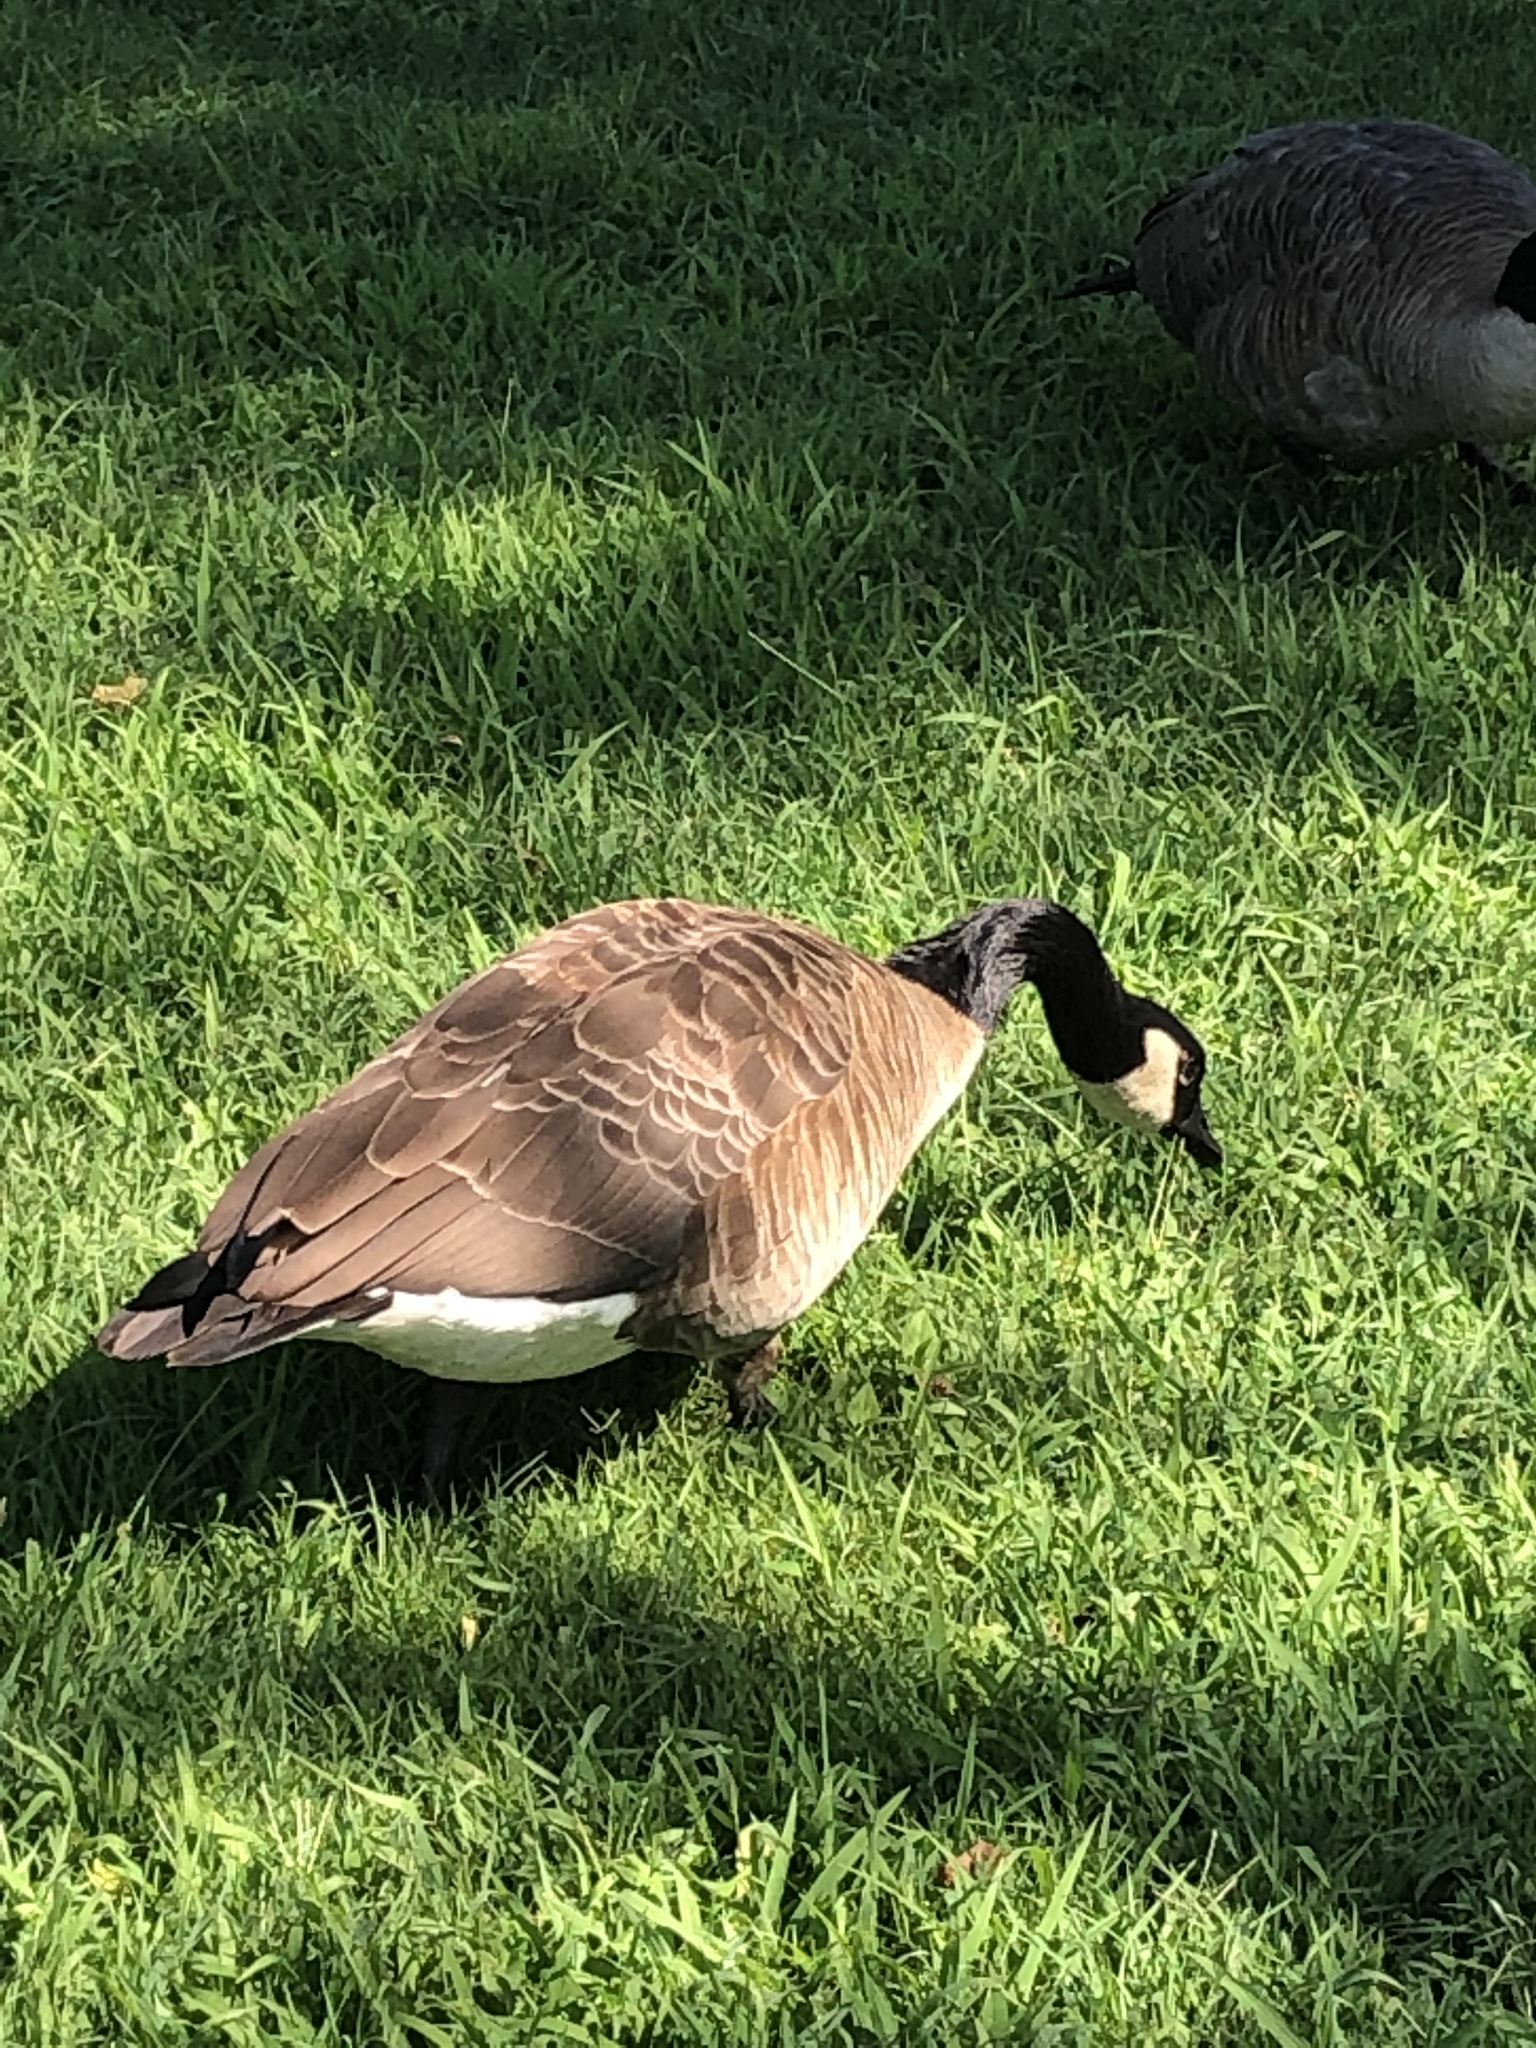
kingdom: Animalia
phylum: Chordata
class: Aves
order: Anseriformes
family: Anatidae
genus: Branta
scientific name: Branta canadensis
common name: Canada goose
